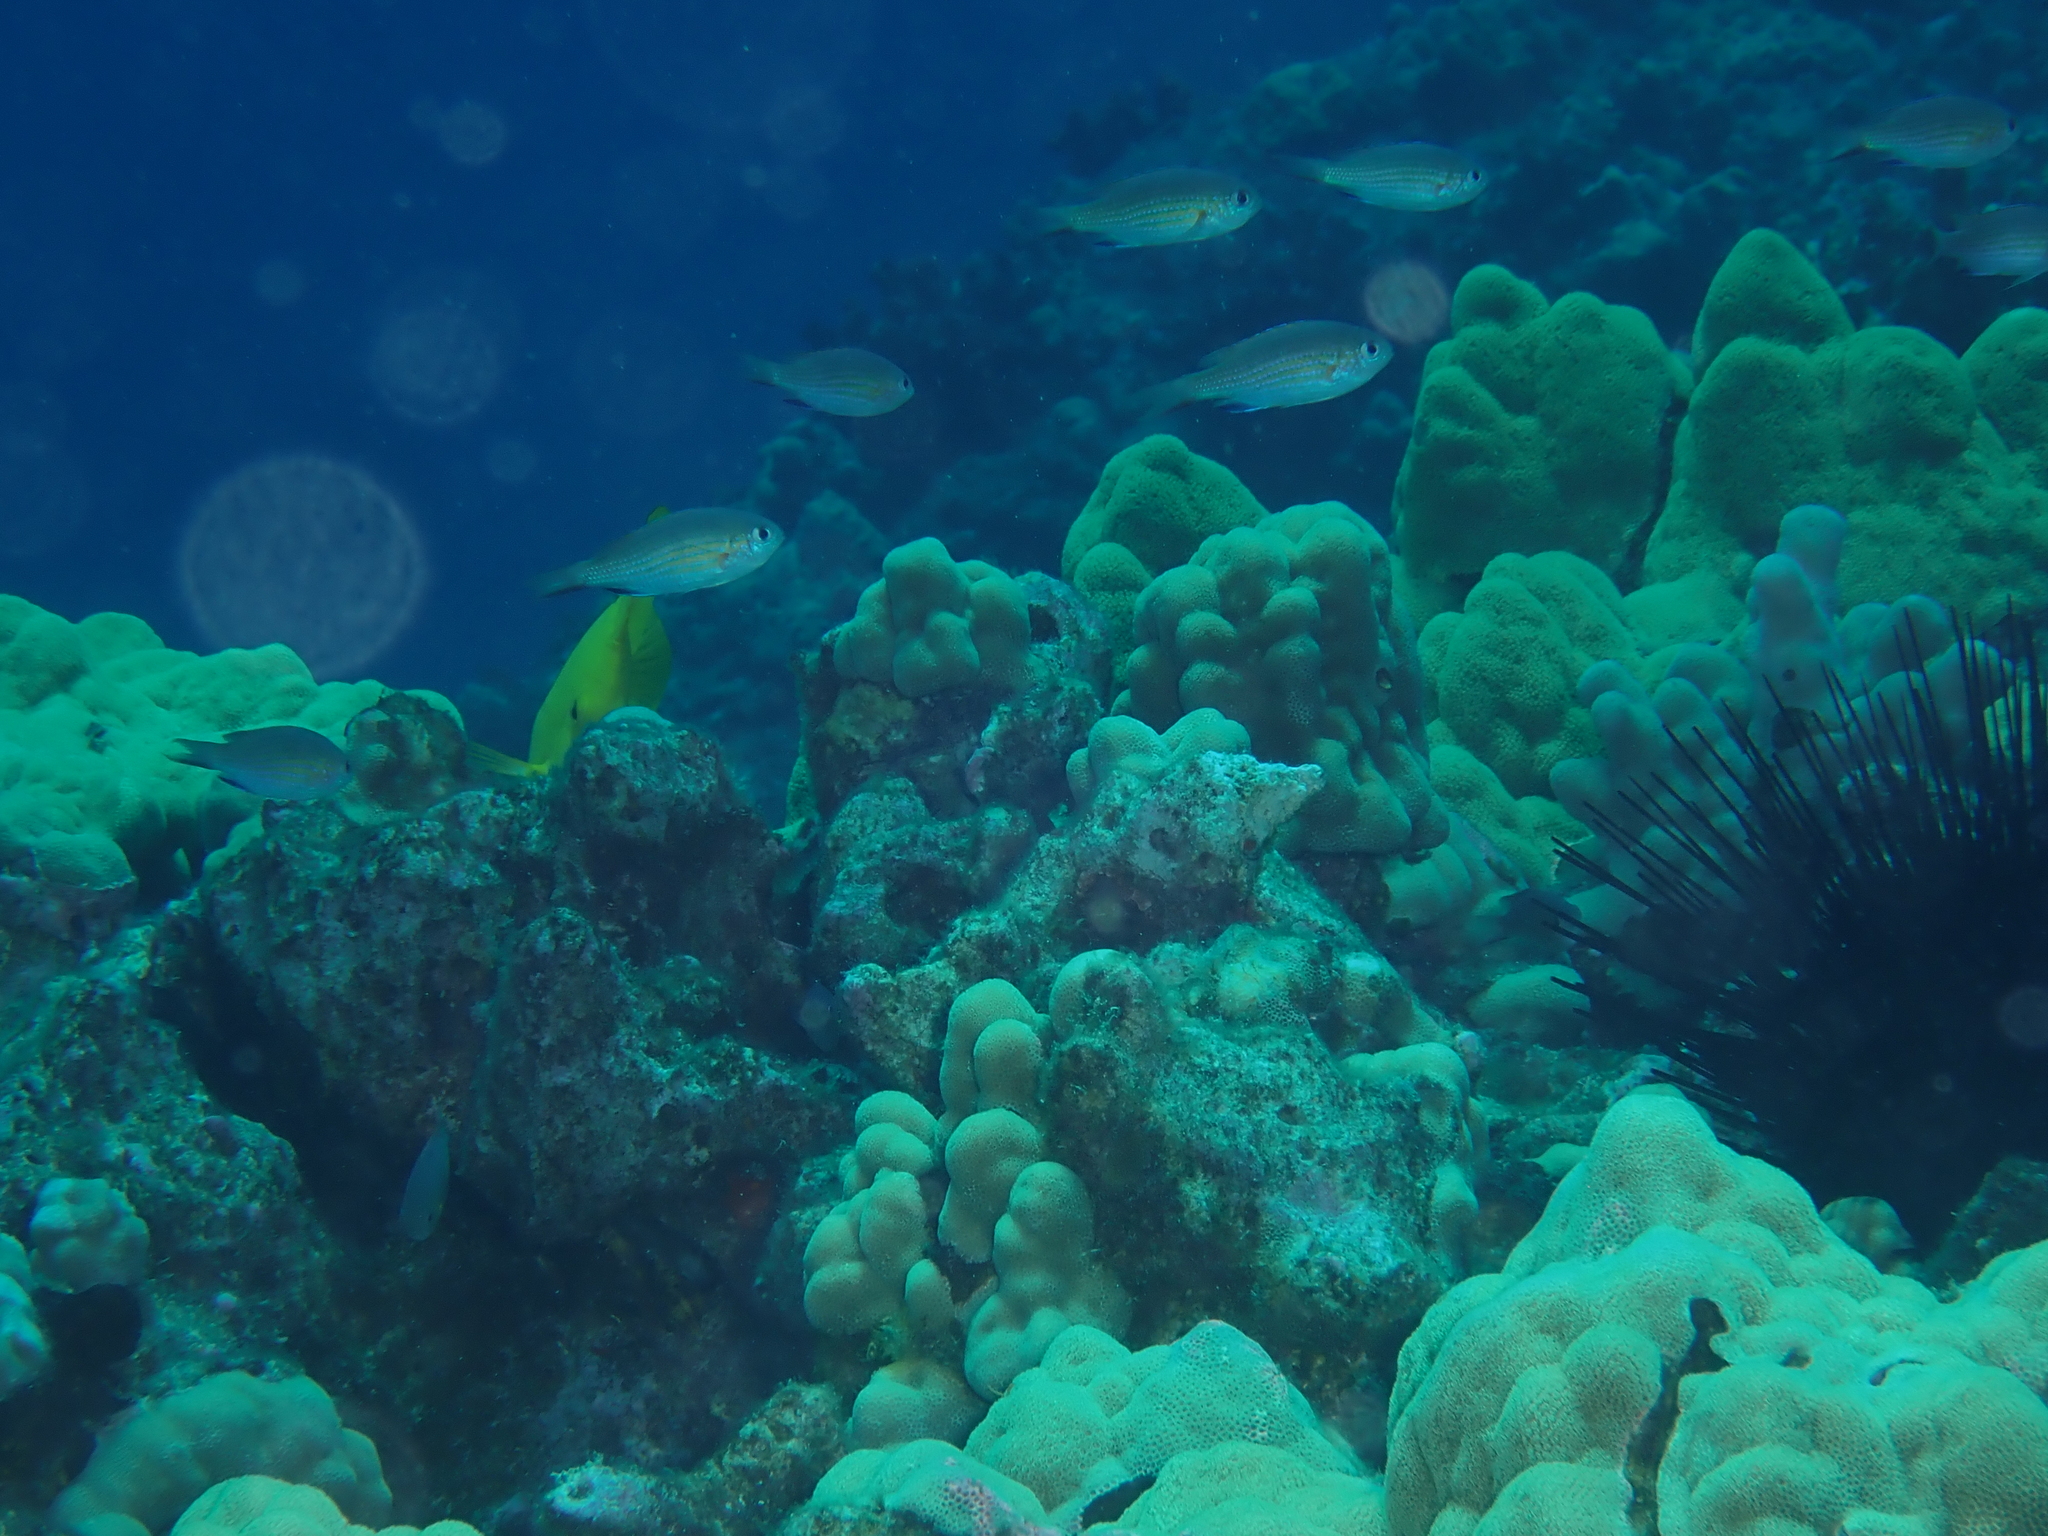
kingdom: Animalia
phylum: Chordata
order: Perciformes
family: Pomacentridae
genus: Chromis
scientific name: Chromis vanderbilti
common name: Vanderbilt's chromis
